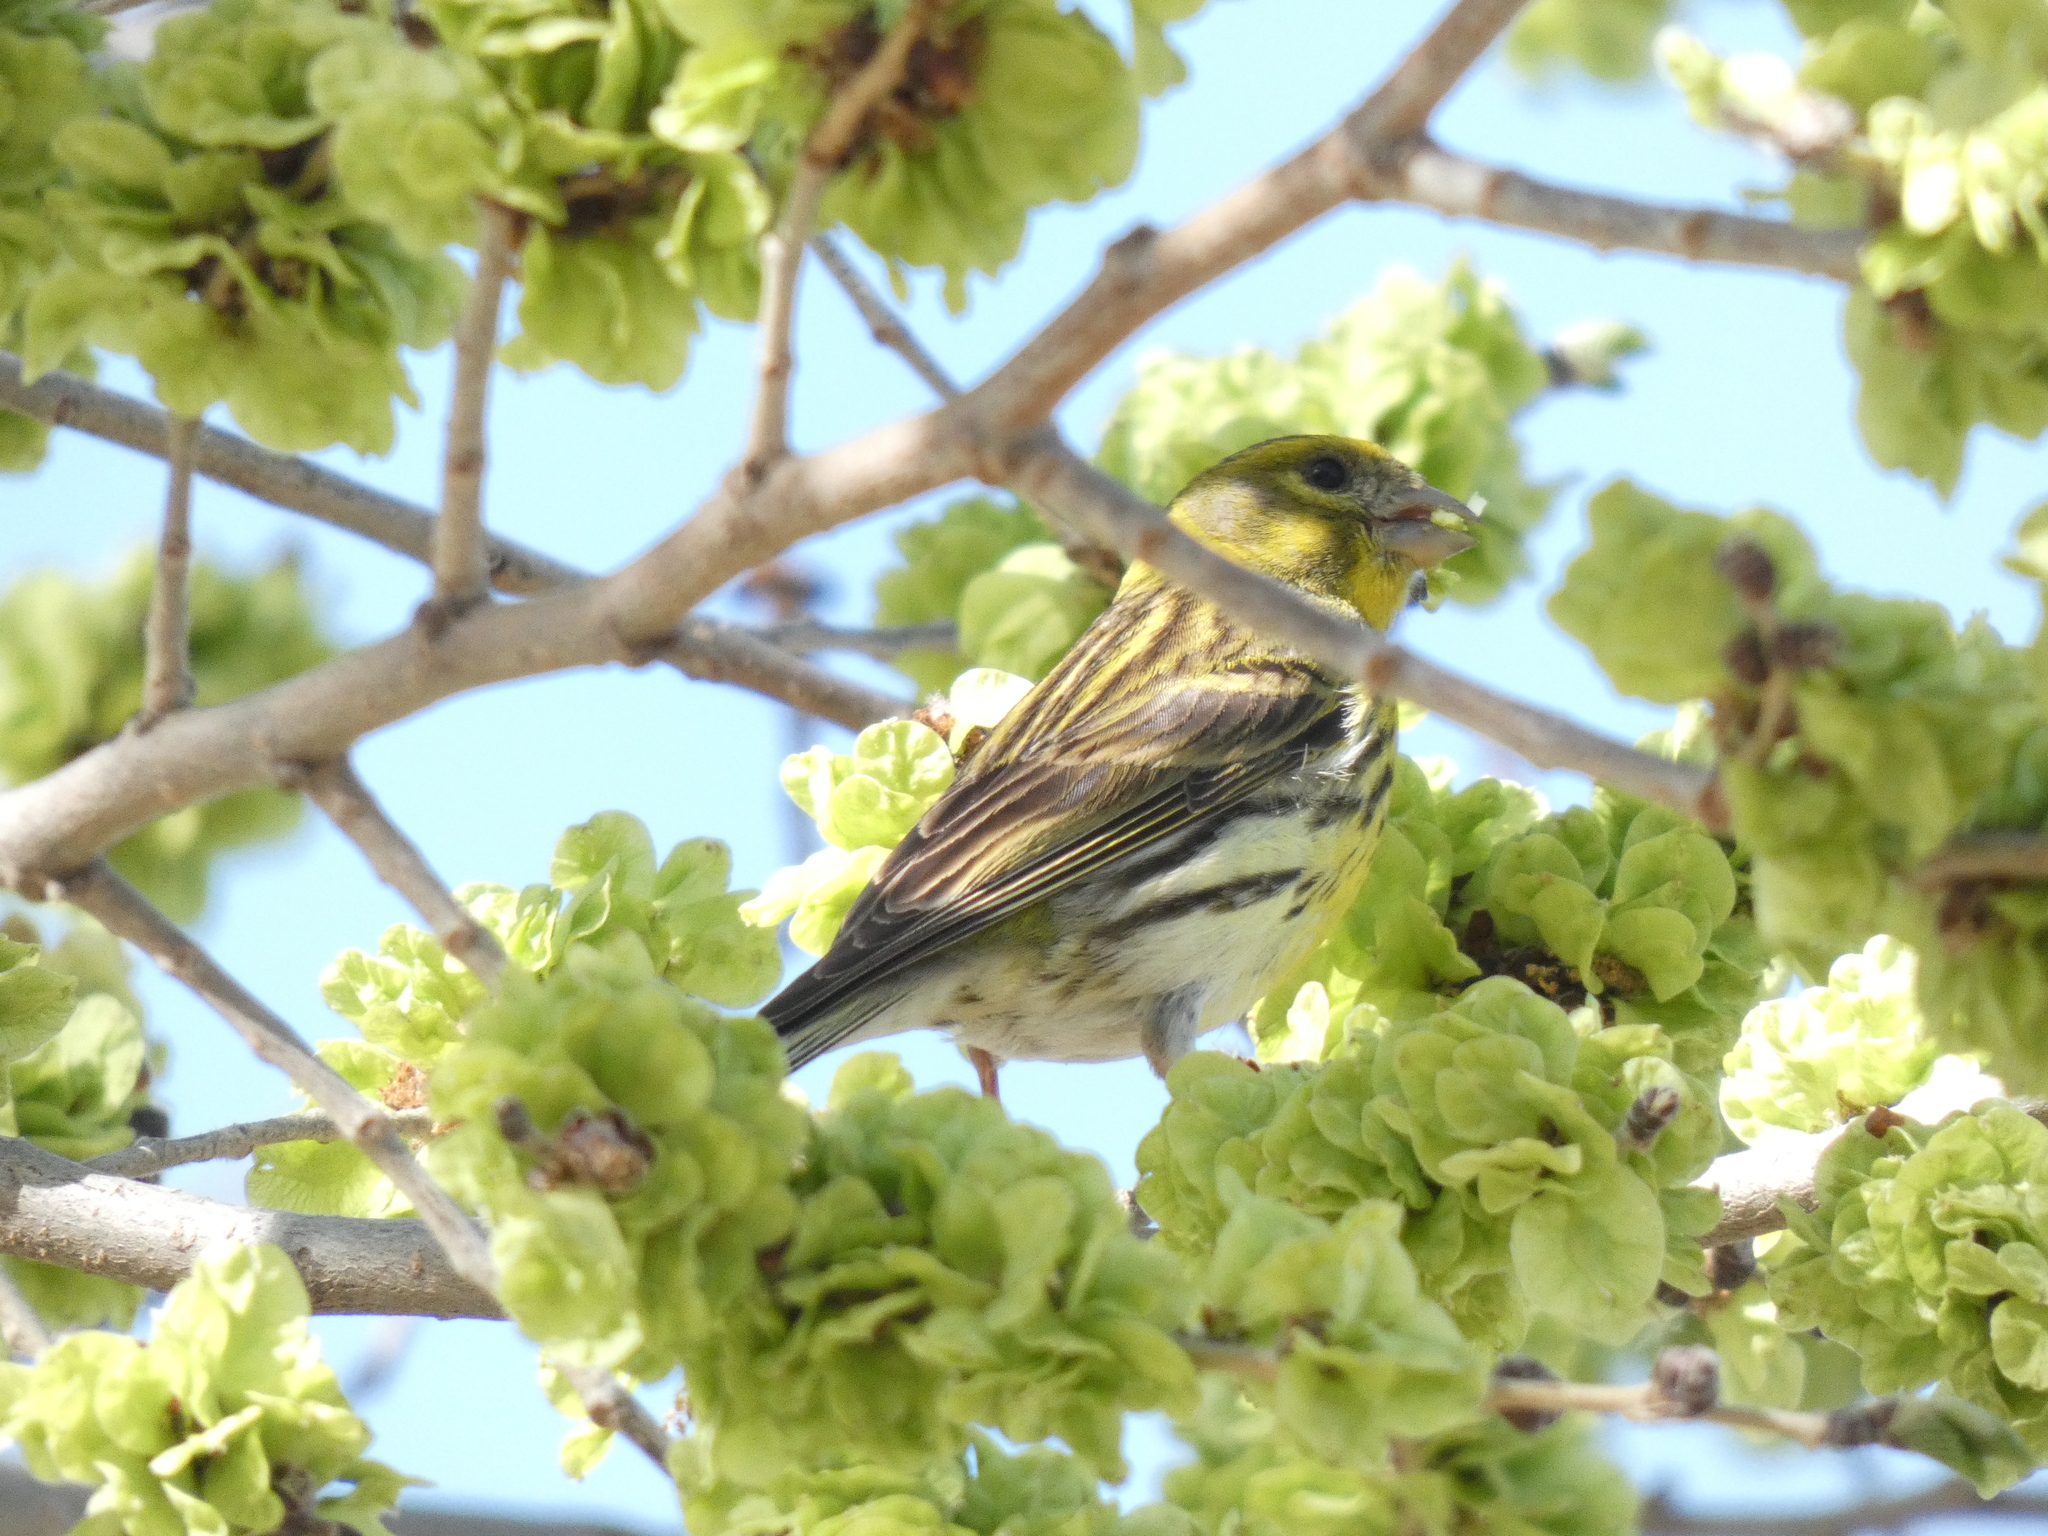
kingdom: Animalia
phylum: Chordata
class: Aves
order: Passeriformes
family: Fringillidae
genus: Serinus
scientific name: Serinus serinus
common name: European serin
